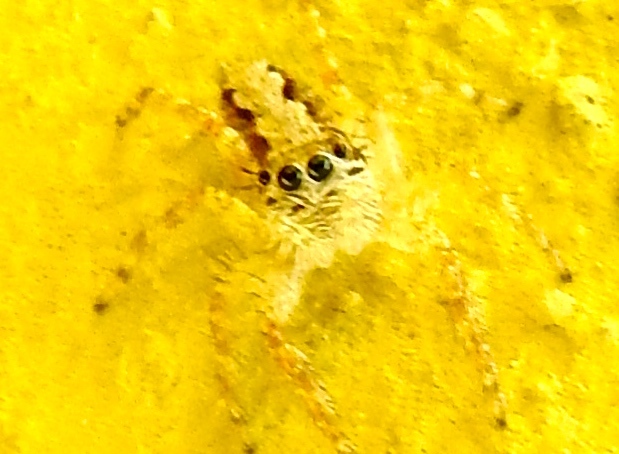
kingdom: Animalia
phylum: Arthropoda
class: Arachnida
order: Araneae
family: Salticidae
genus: Balmaceda
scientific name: Balmaceda
